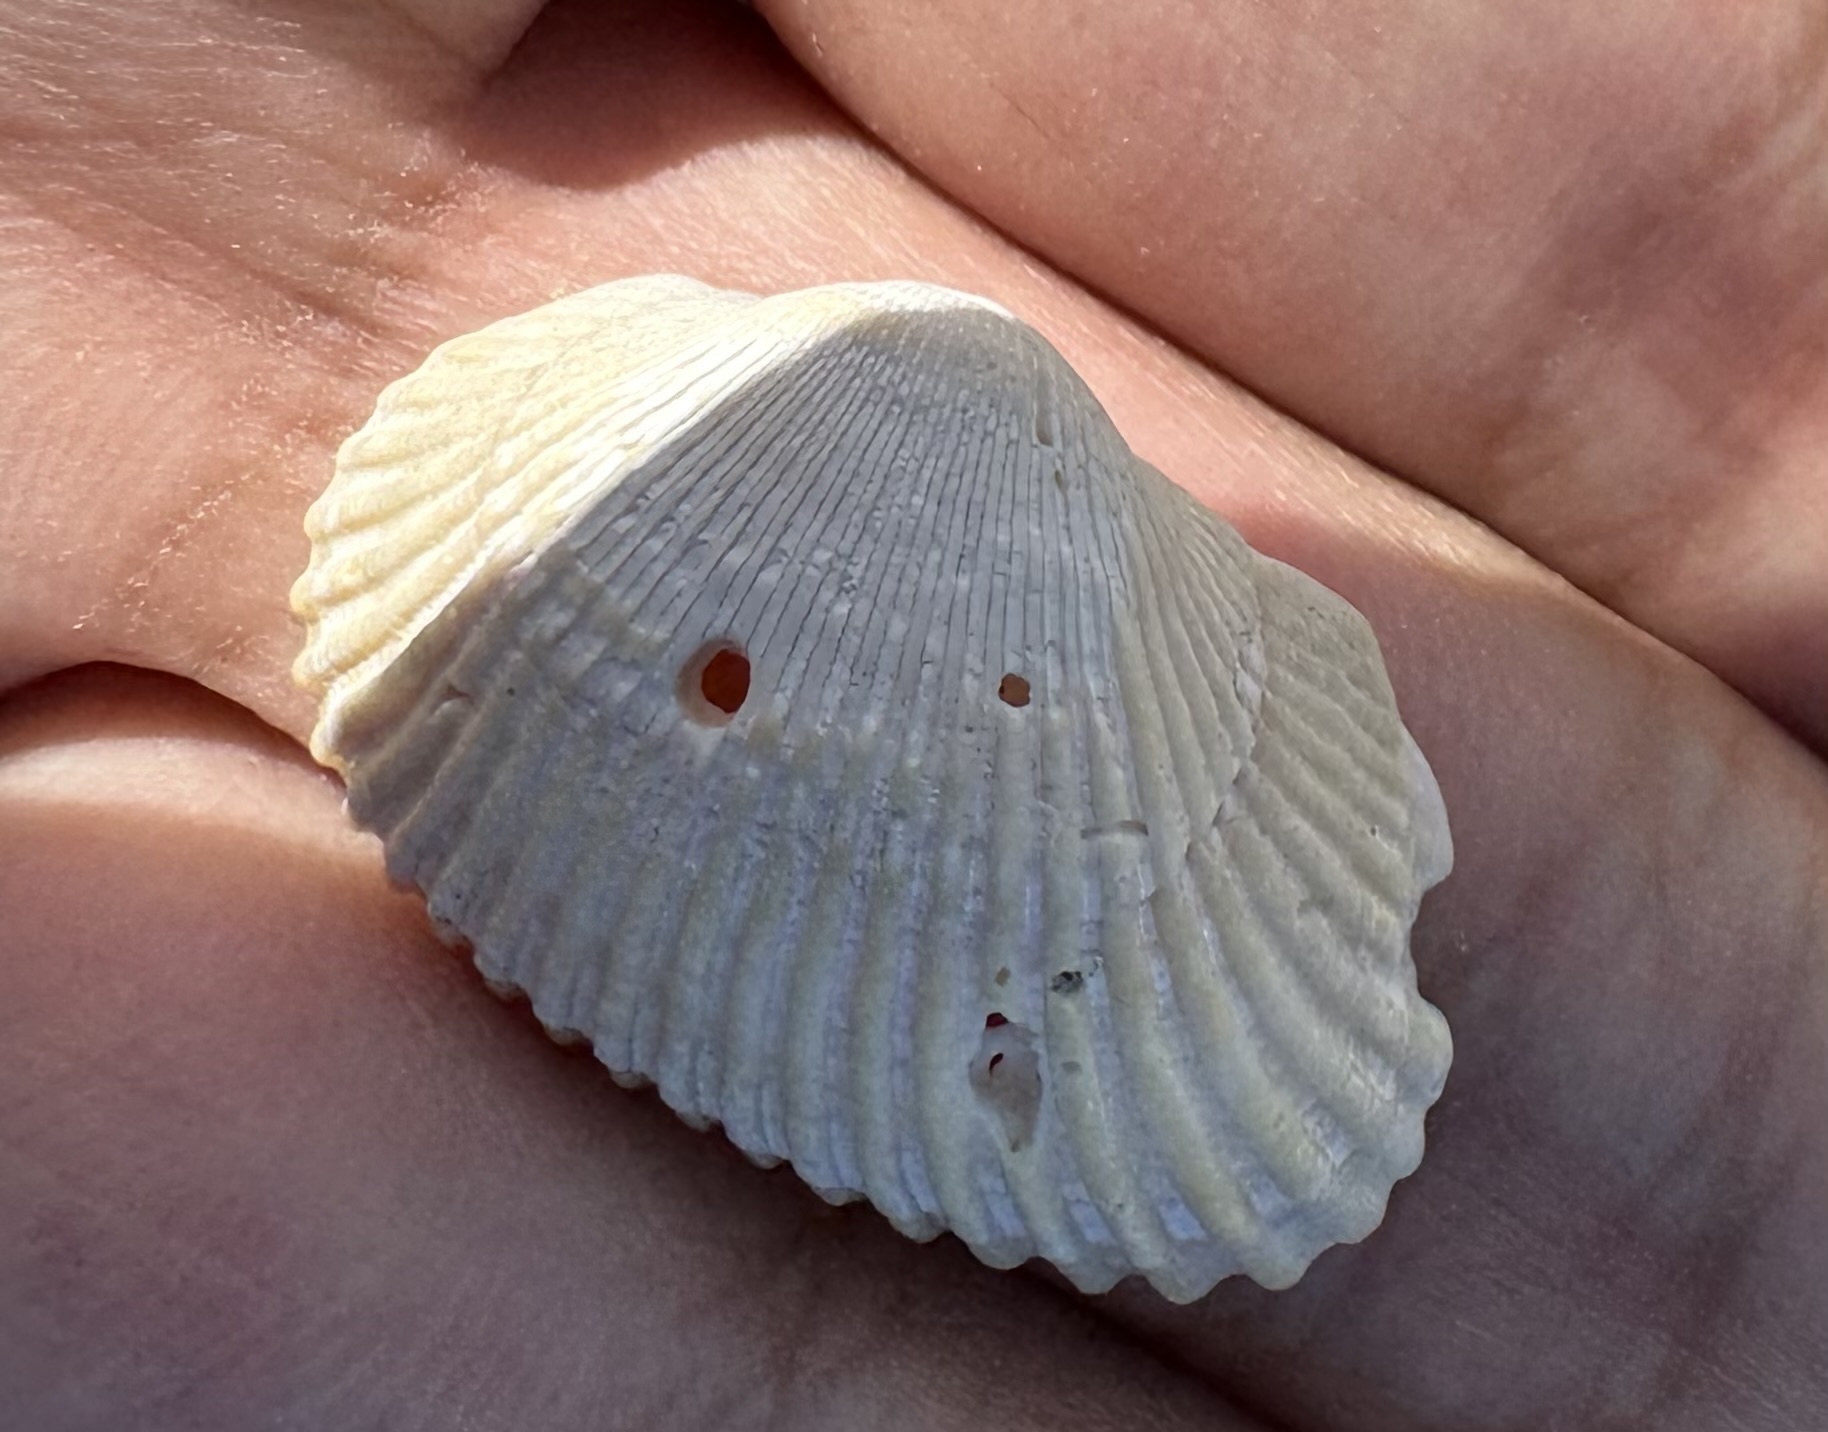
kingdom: Animalia
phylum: Mollusca
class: Bivalvia
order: Arcida
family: Arcidae
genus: Anadara
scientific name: Anadara transversa
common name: Transverse ark
